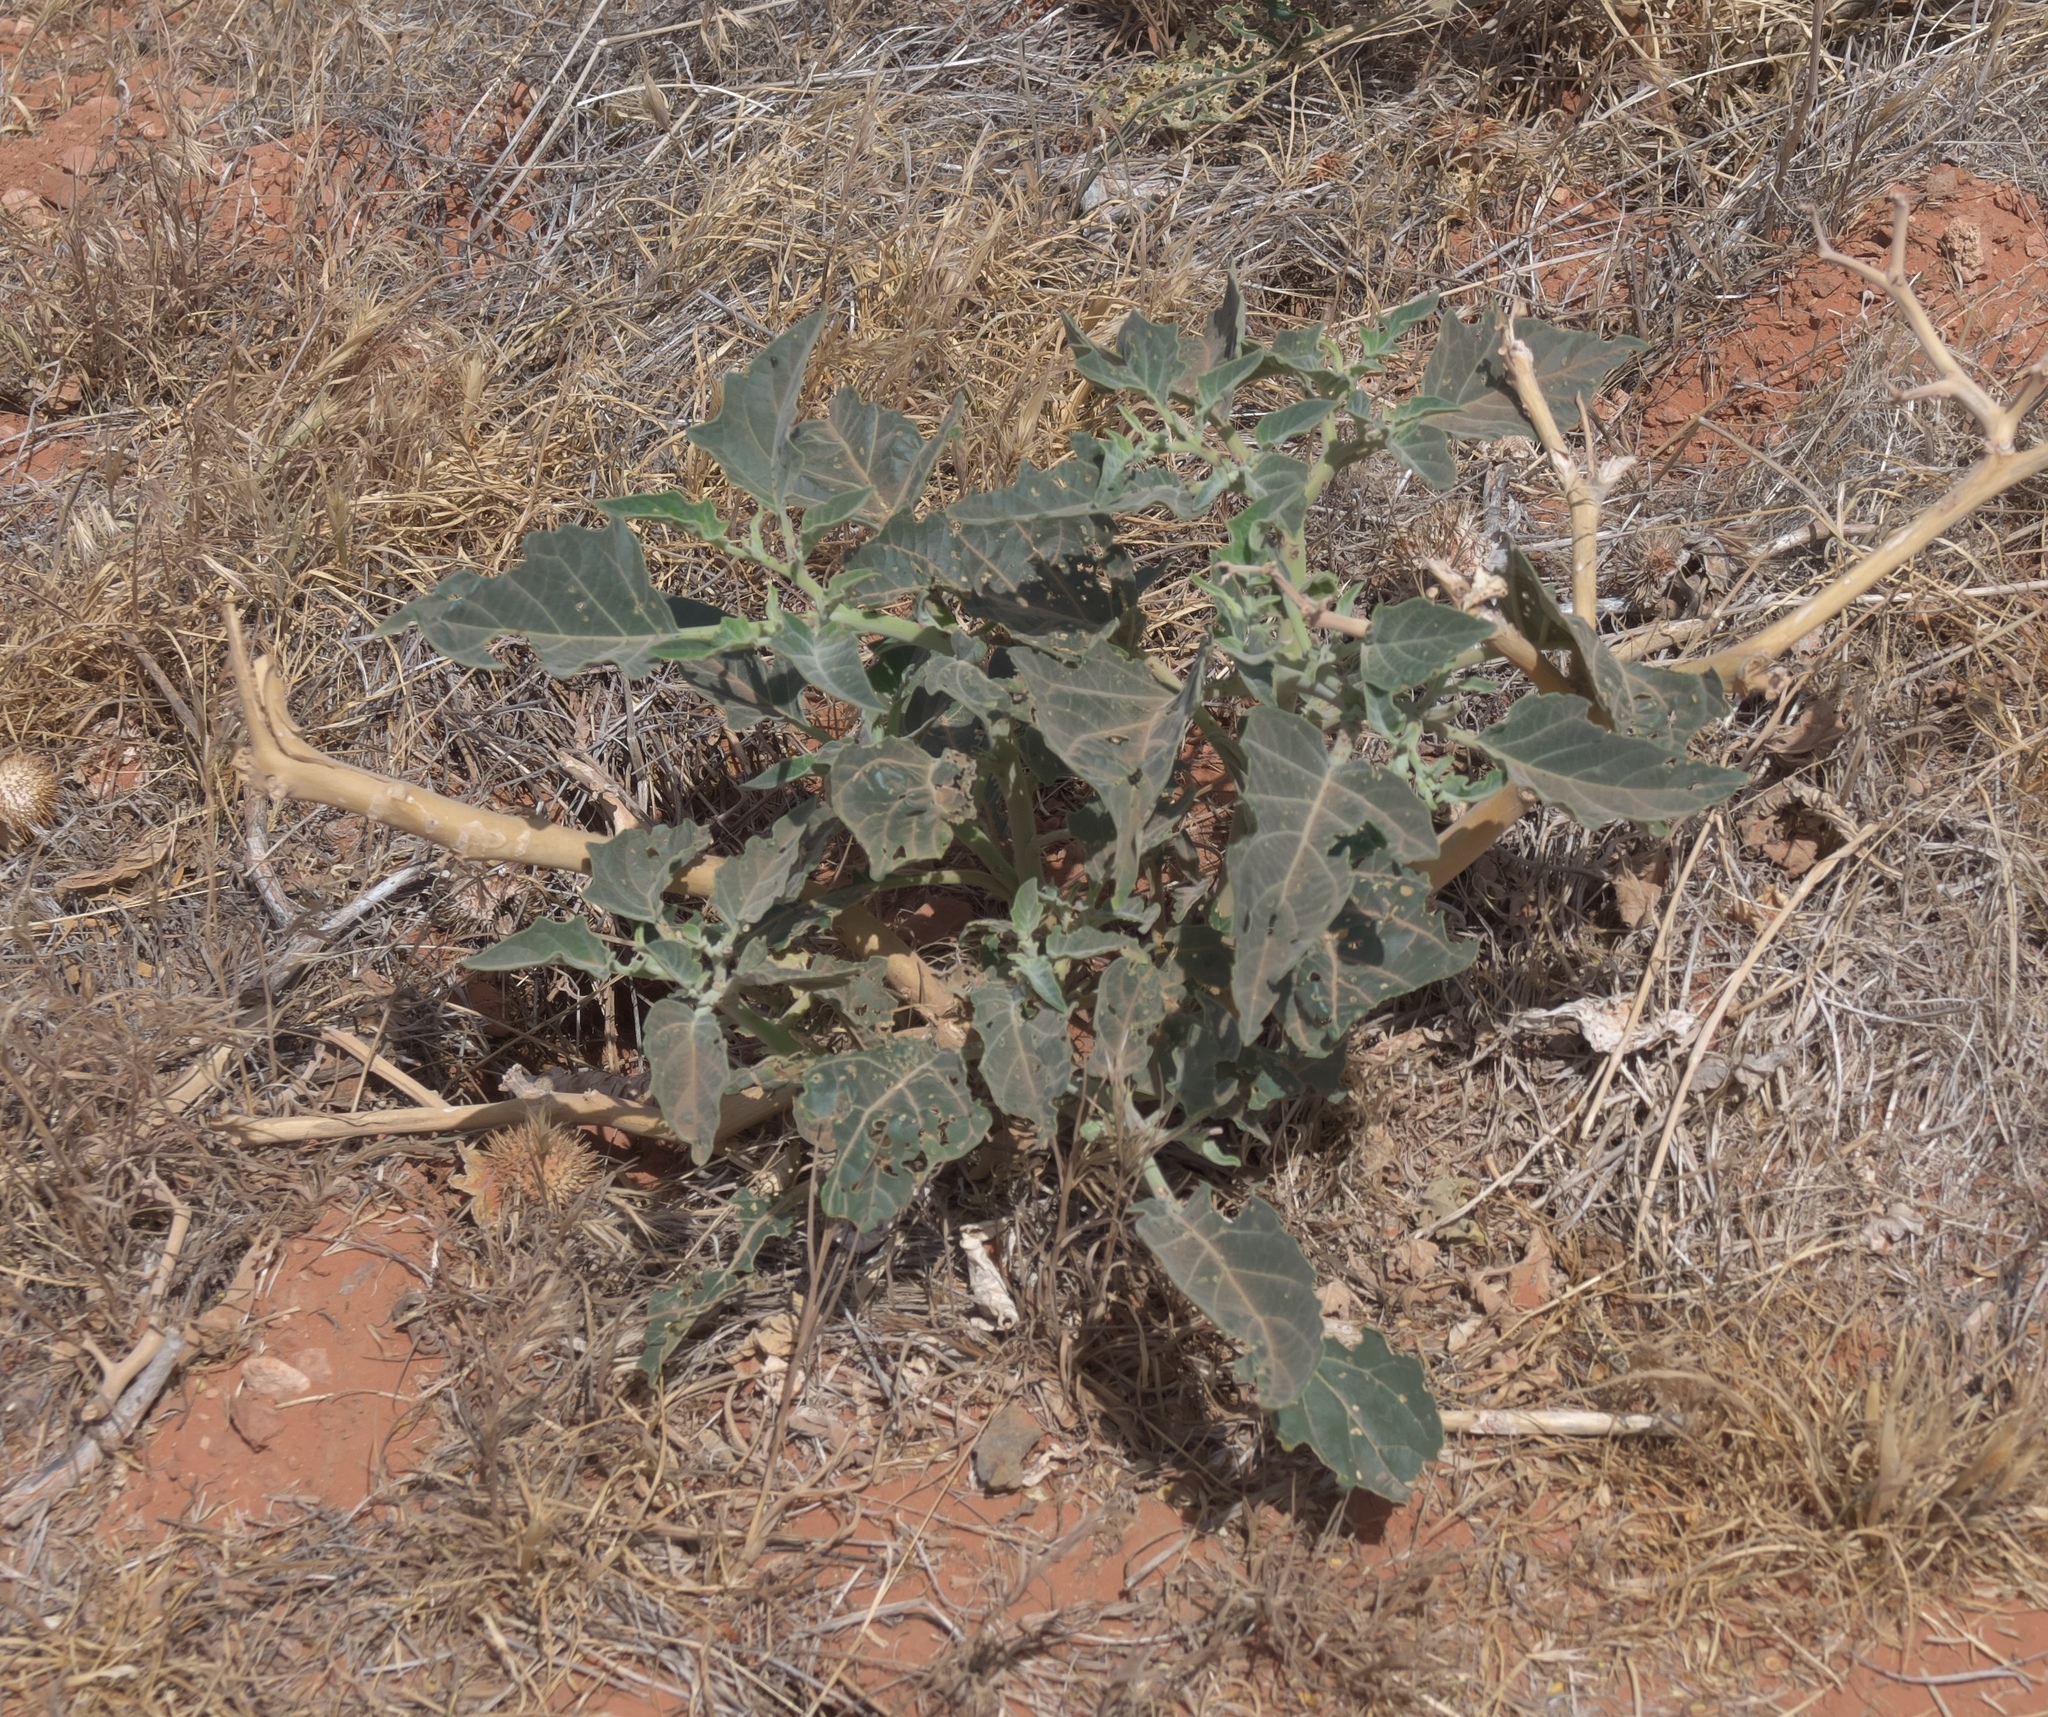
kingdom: Plantae
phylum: Tracheophyta
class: Magnoliopsida
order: Solanales
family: Solanaceae
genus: Datura
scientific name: Datura wrightii
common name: Sacred thorn-apple
